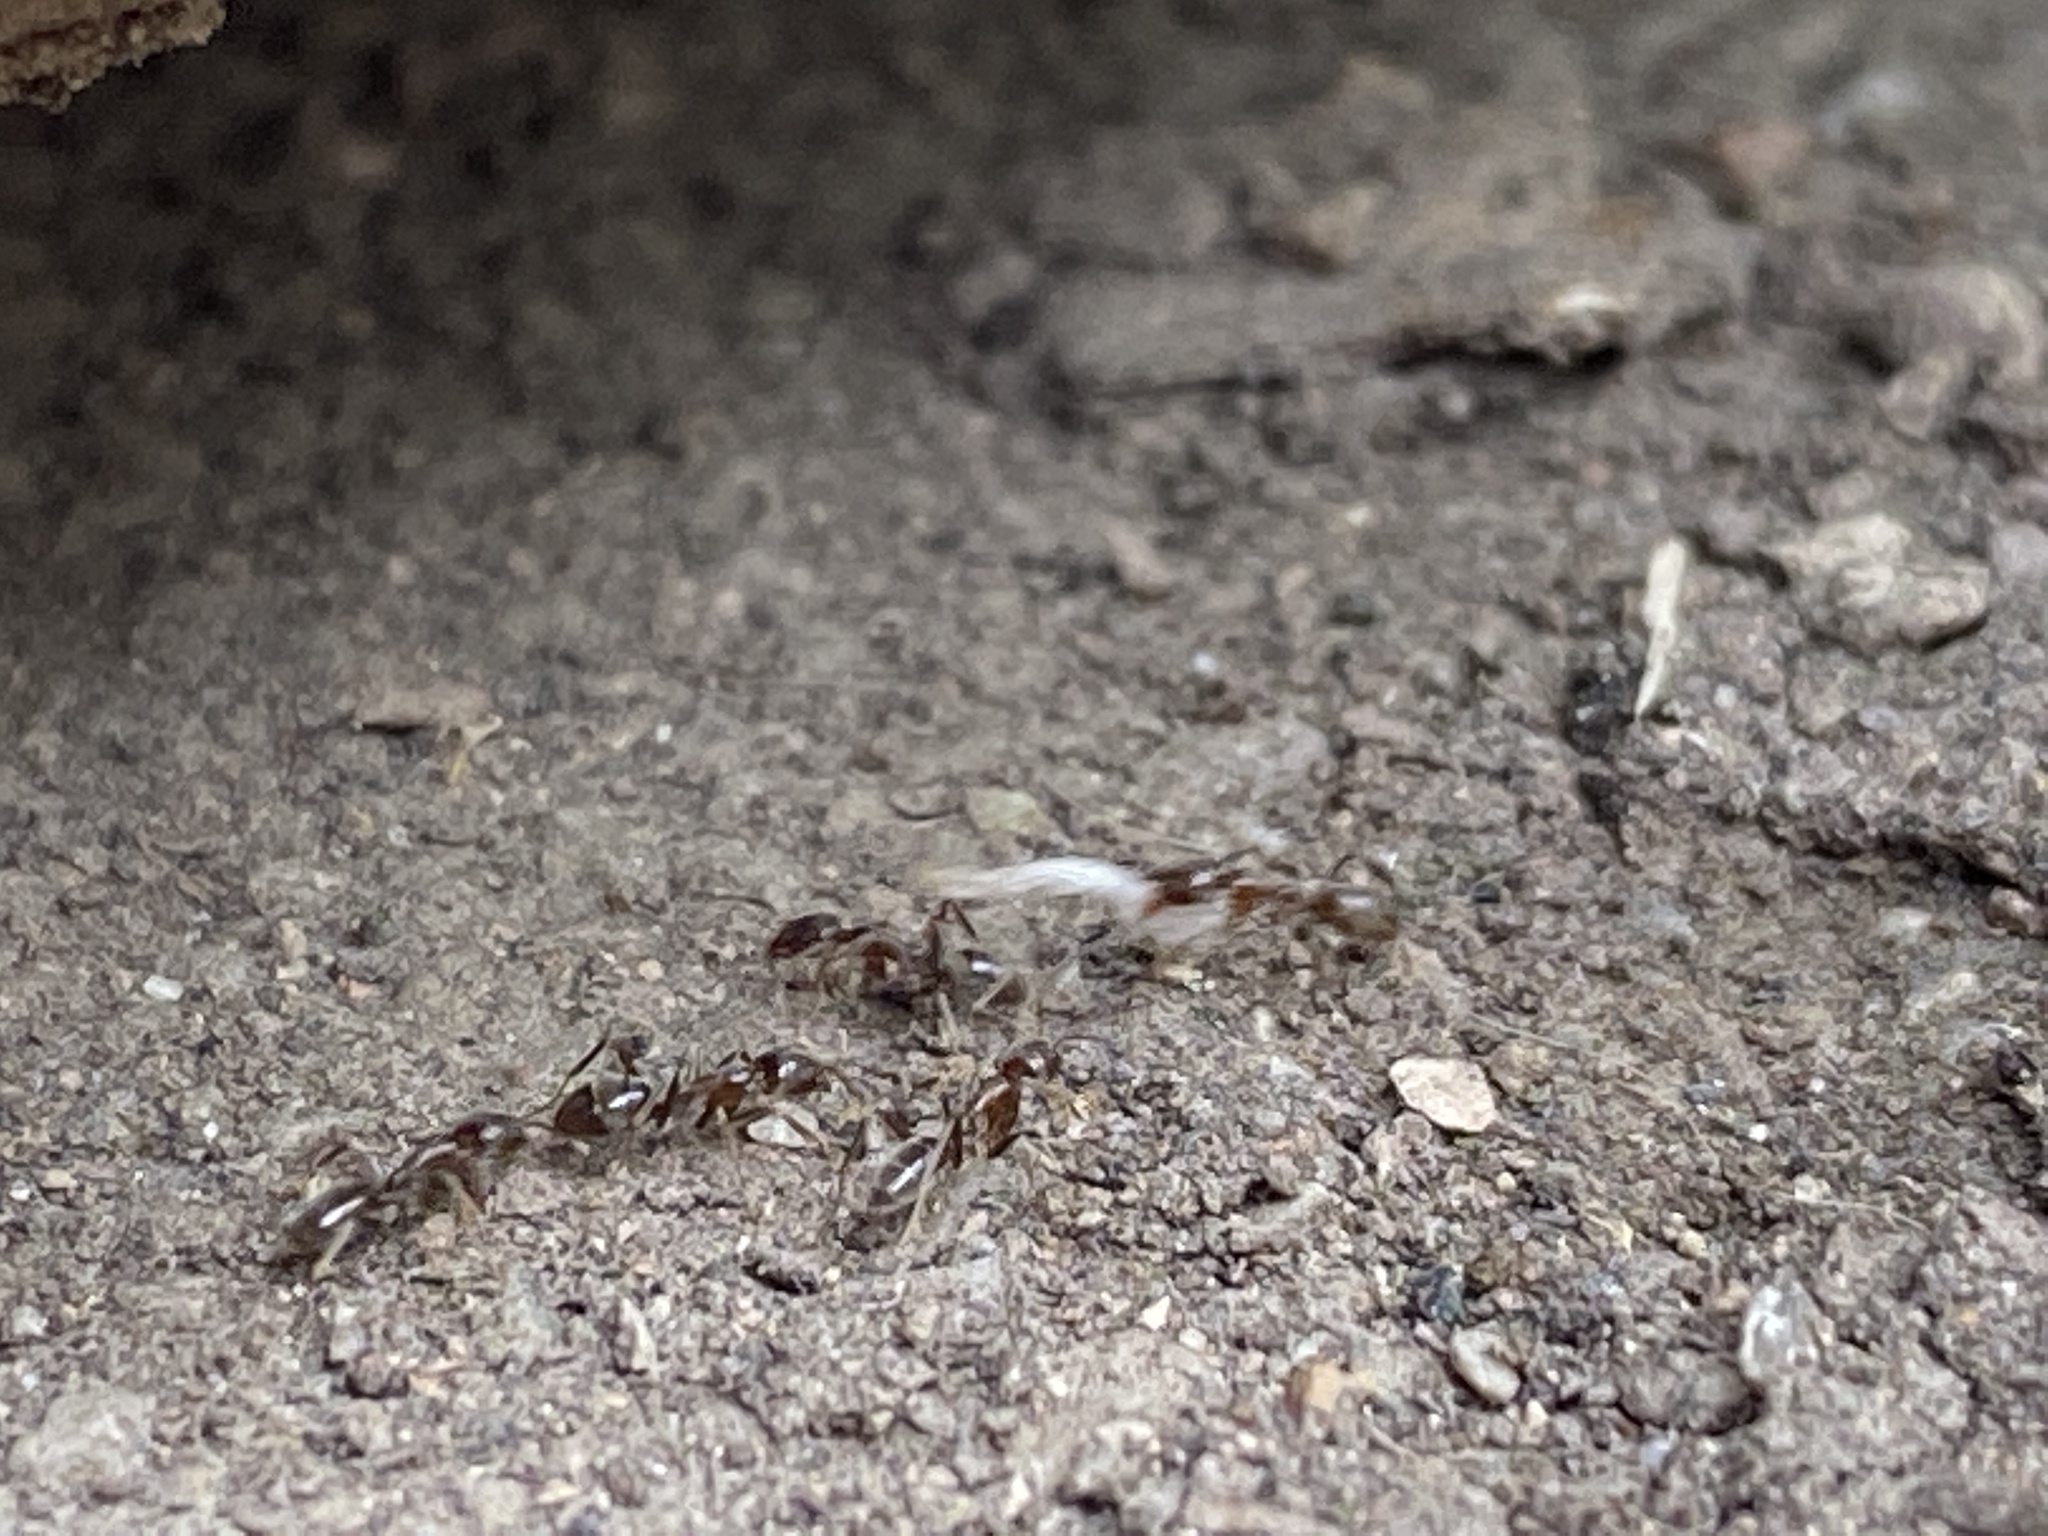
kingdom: Animalia
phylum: Arthropoda
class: Insecta
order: Hymenoptera
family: Formicidae
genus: Linepithema
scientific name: Linepithema humile
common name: Argentine ant
